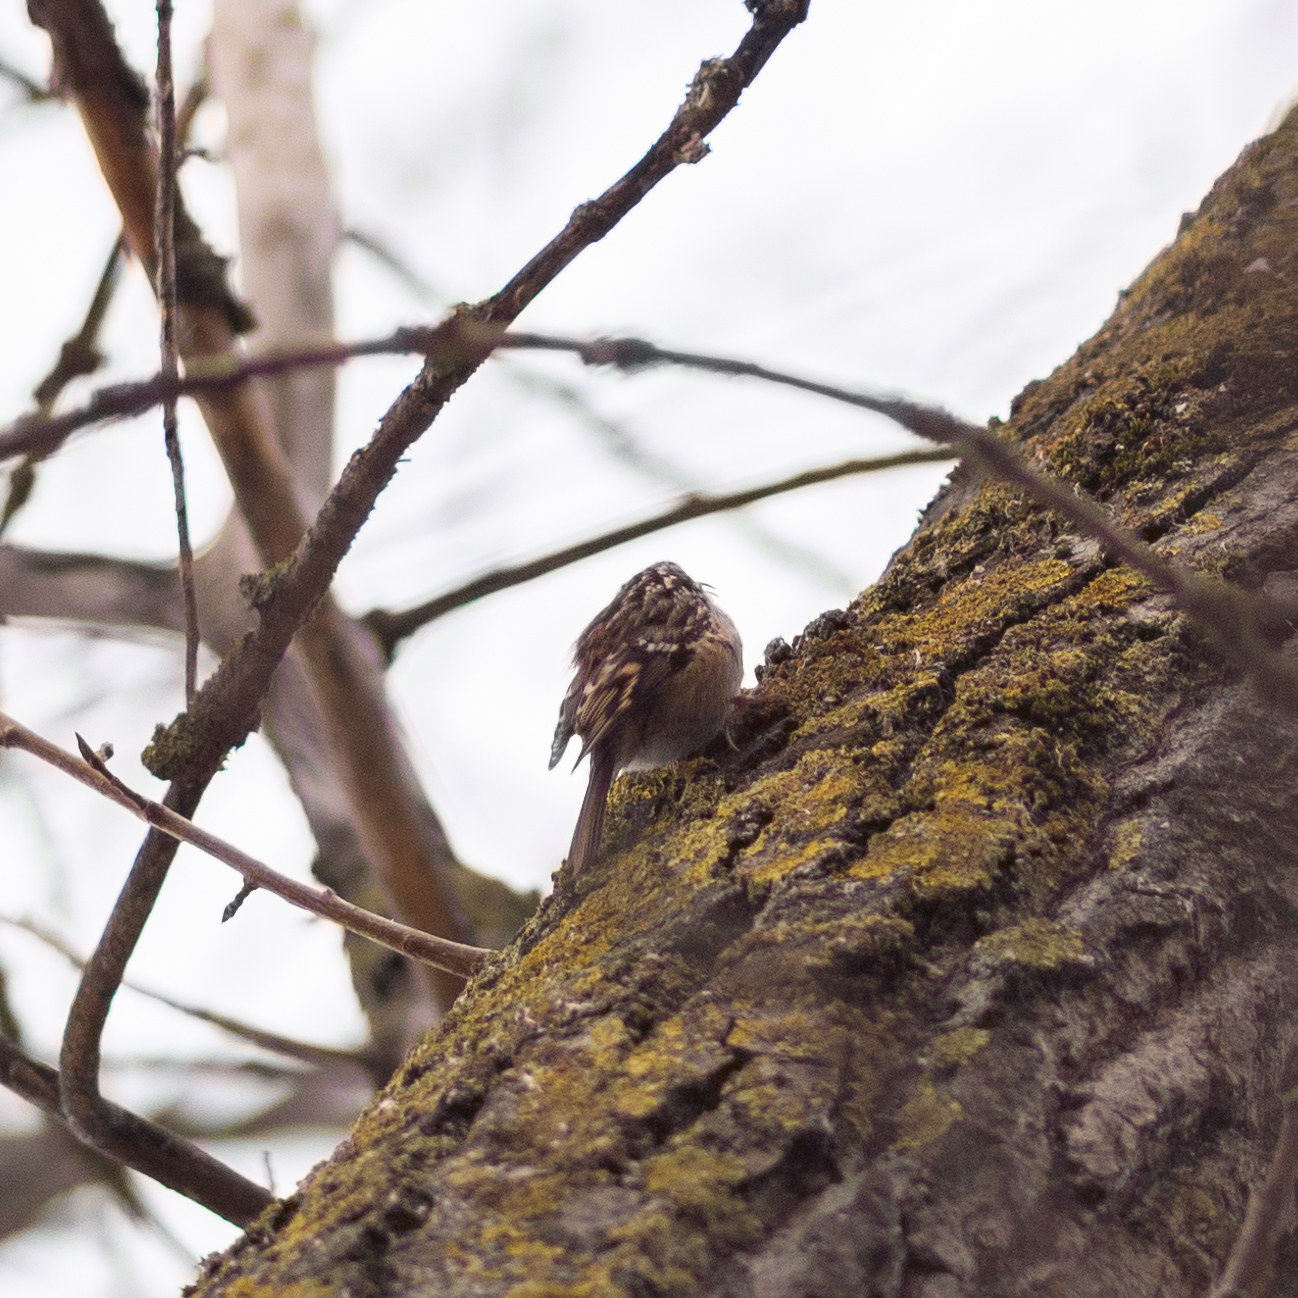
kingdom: Animalia
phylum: Chordata
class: Aves
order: Passeriformes
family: Certhiidae
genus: Certhia
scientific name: Certhia brachydactyla
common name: Short-toed treecreeper
